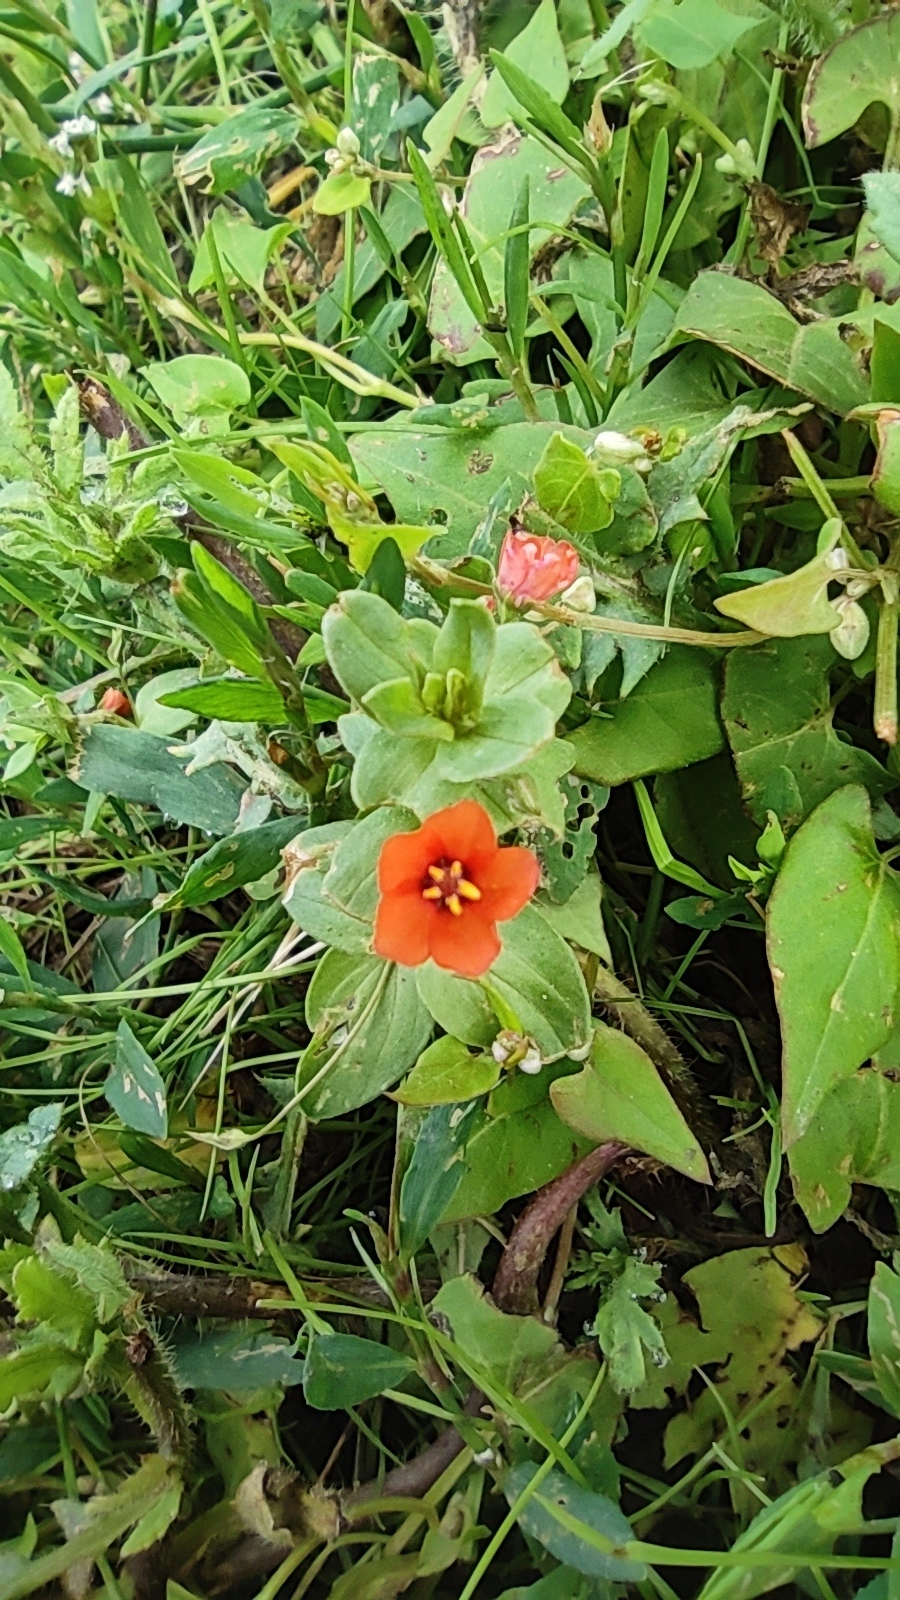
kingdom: Plantae
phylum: Tracheophyta
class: Magnoliopsida
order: Ericales
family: Primulaceae
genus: Lysimachia
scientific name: Lysimachia arvensis
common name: Scarlet pimpernel
